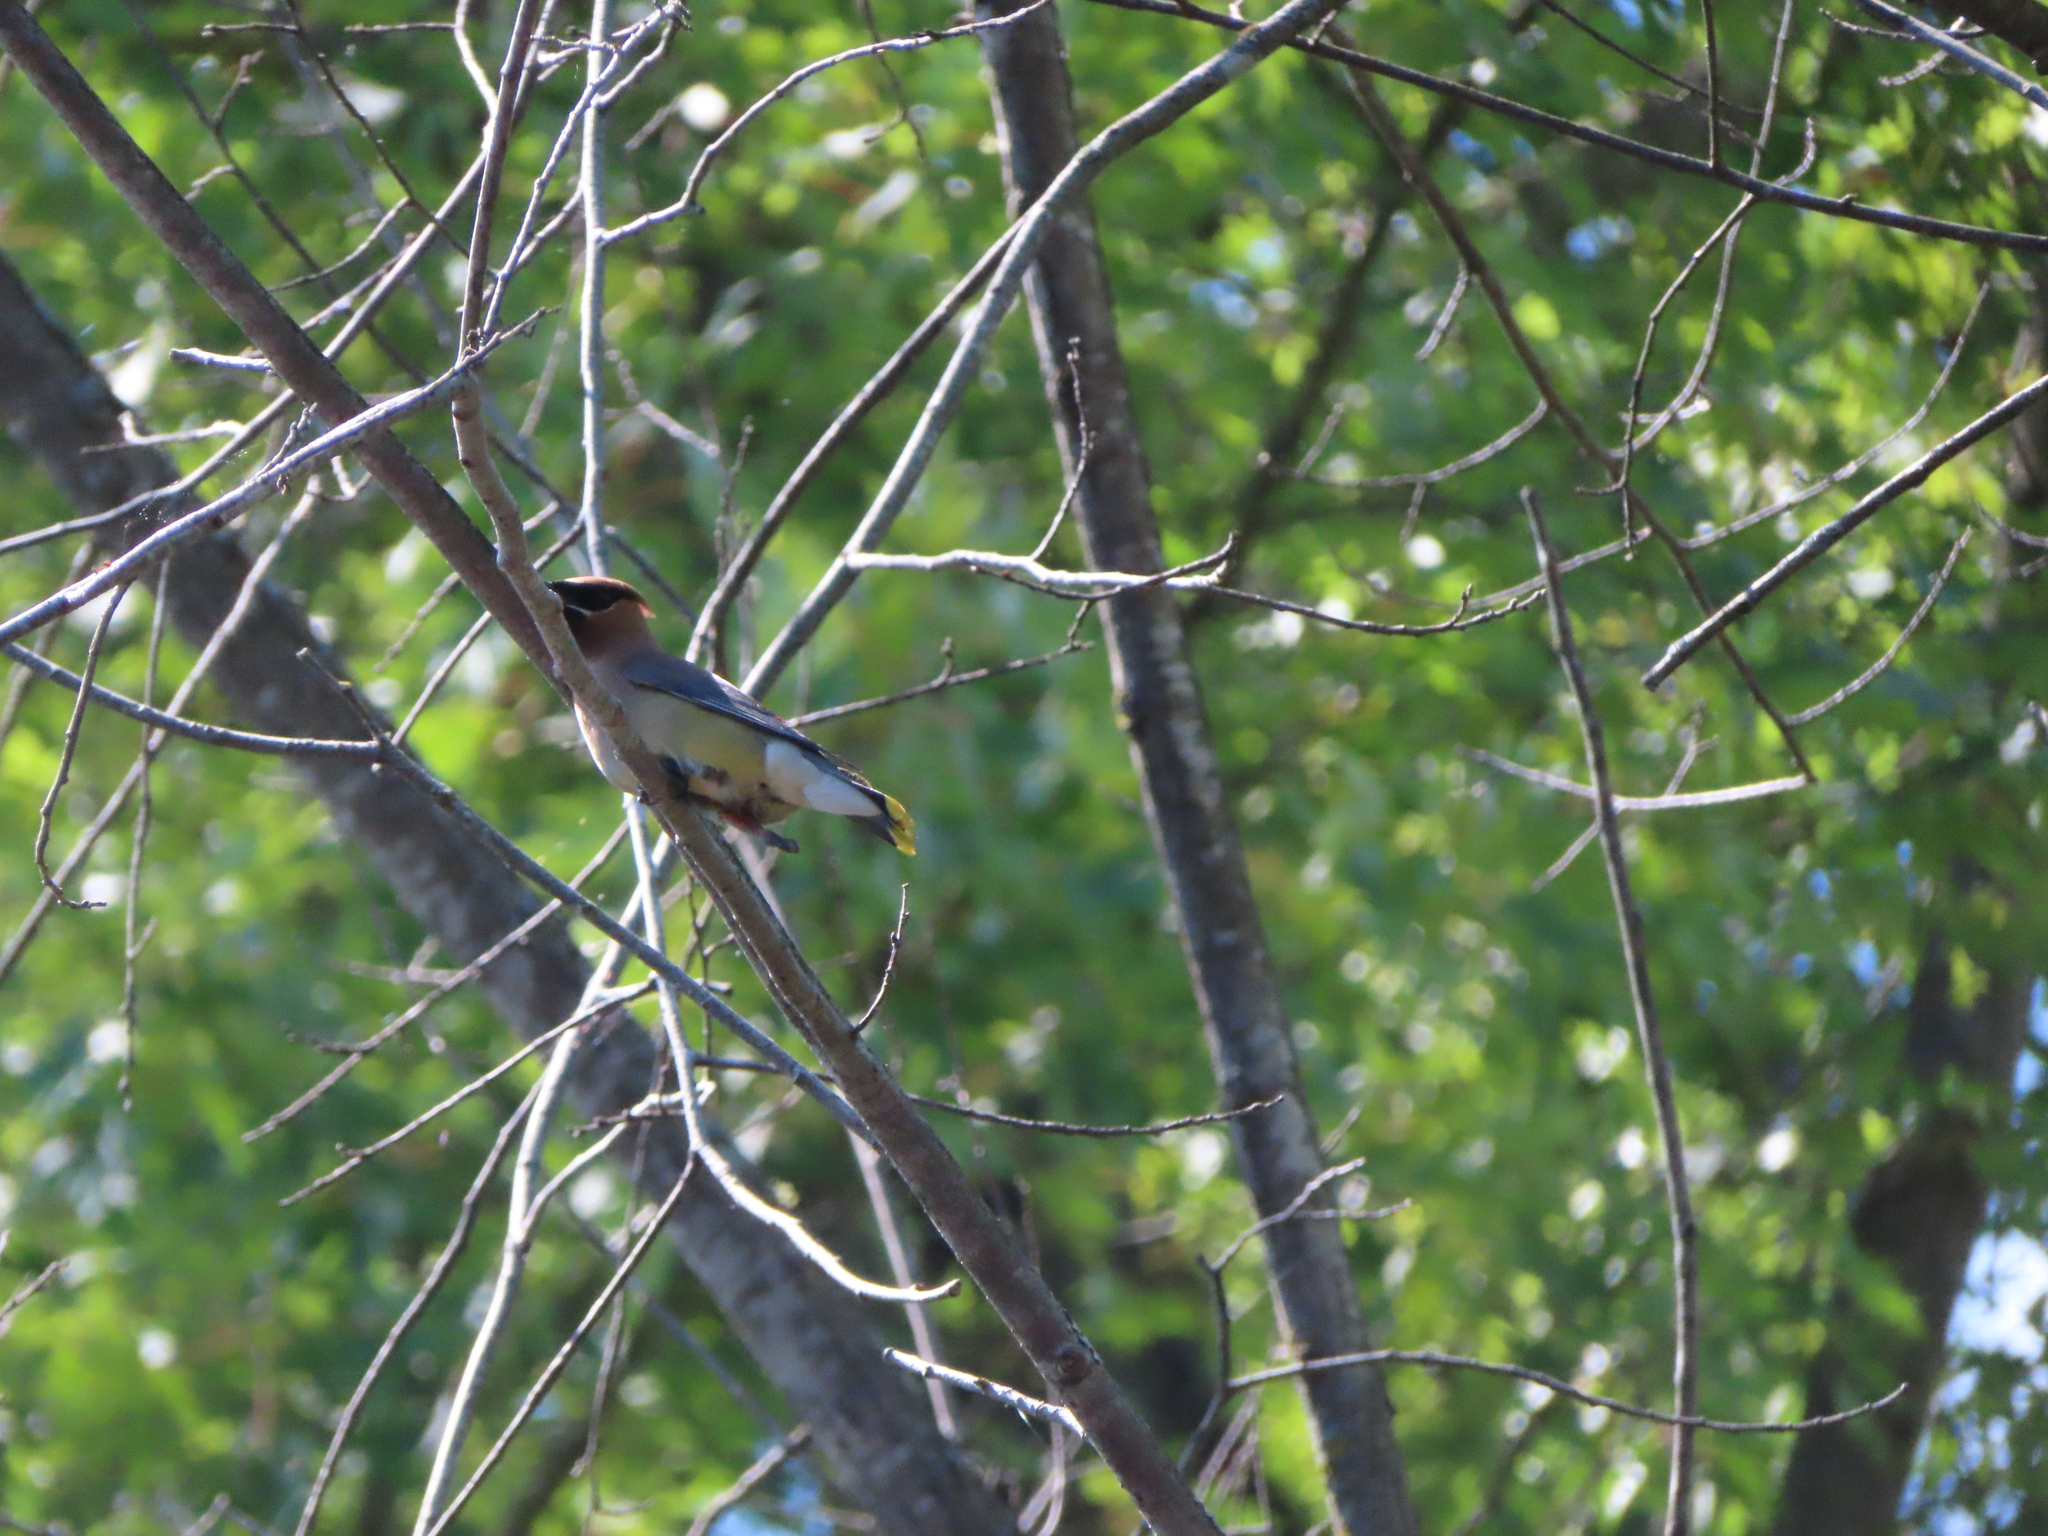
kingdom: Animalia
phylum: Chordata
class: Aves
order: Passeriformes
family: Bombycillidae
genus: Bombycilla
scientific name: Bombycilla cedrorum
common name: Cedar waxwing
